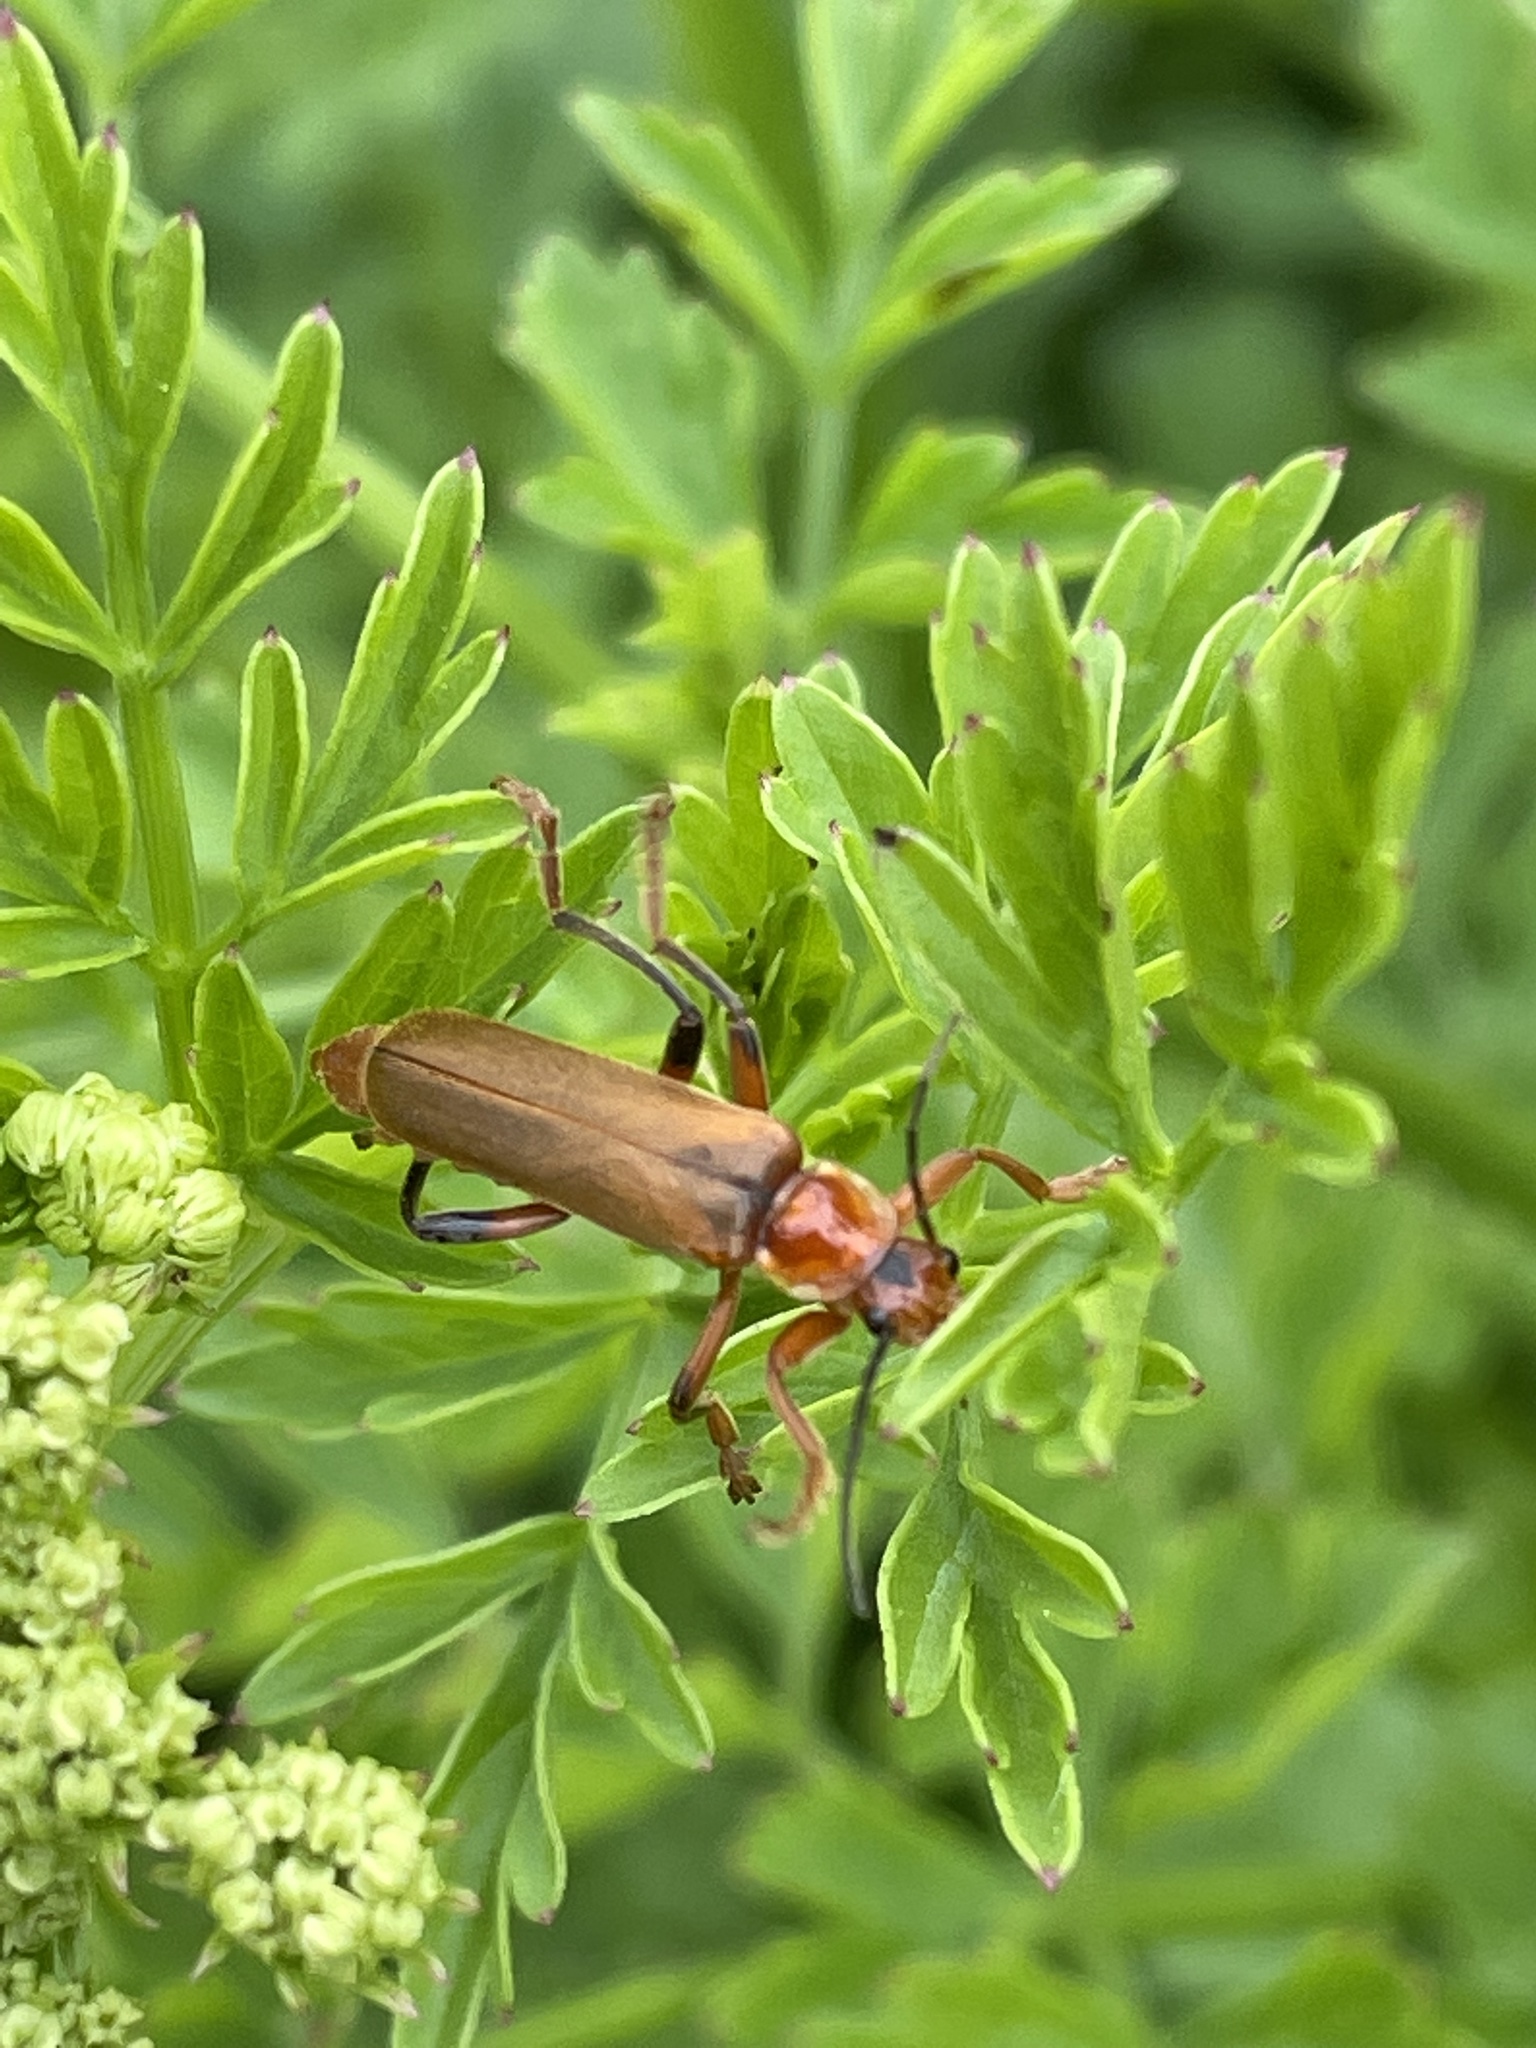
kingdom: Animalia
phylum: Arthropoda
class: Insecta
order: Coleoptera
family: Cantharidae
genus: Cantharis
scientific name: Cantharis livida
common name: Livid soldier beetle
